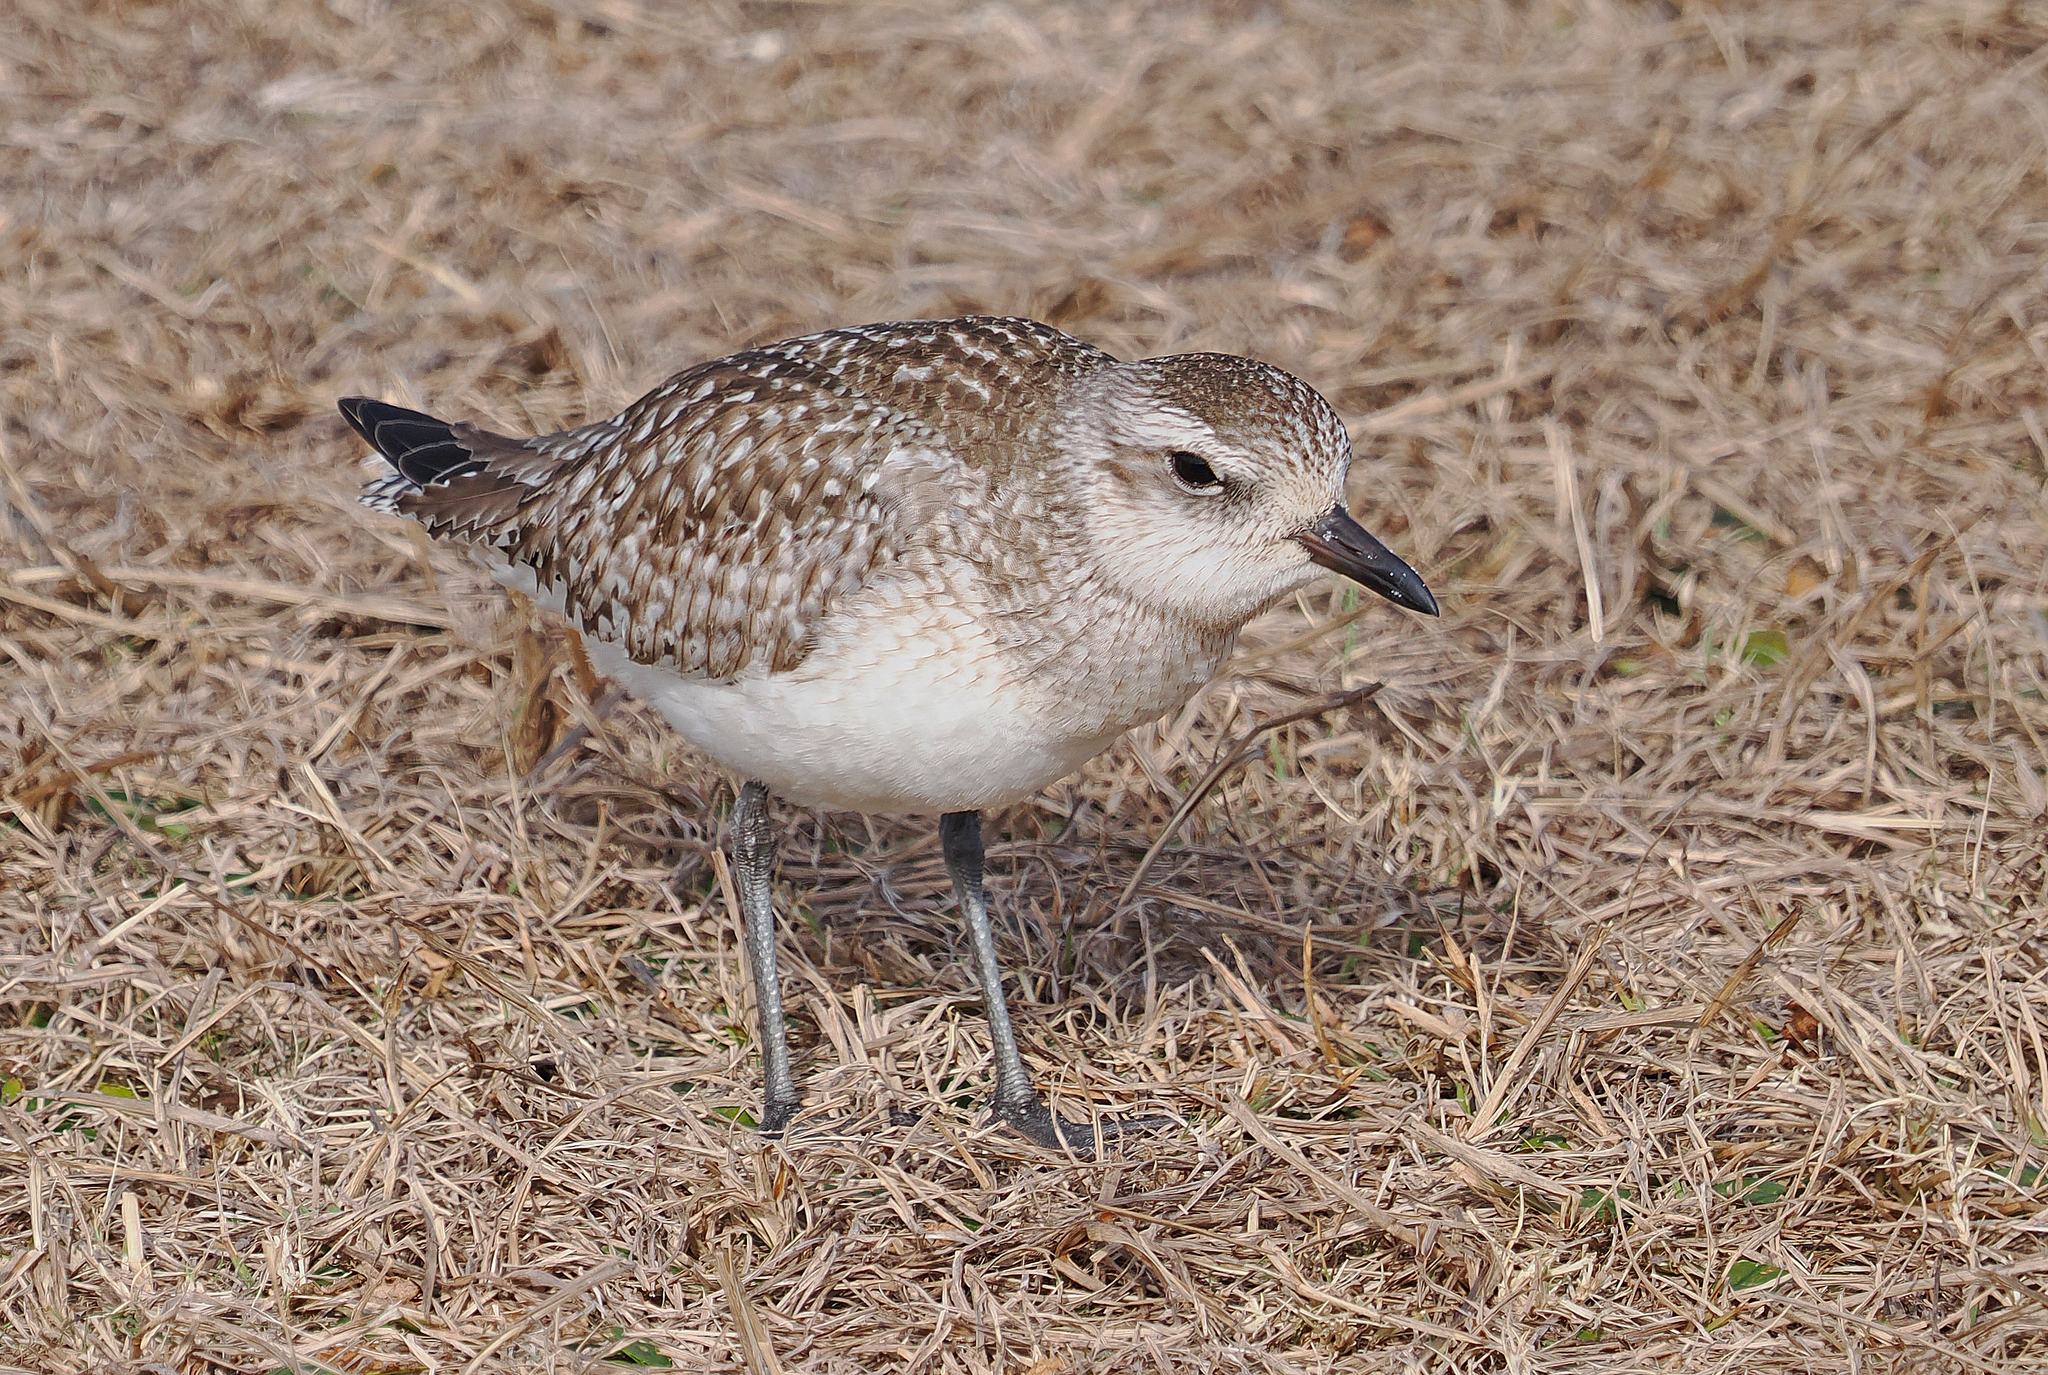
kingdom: Animalia
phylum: Chordata
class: Aves
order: Charadriiformes
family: Charadriidae
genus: Pluvialis
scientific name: Pluvialis squatarola
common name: Grey plover
